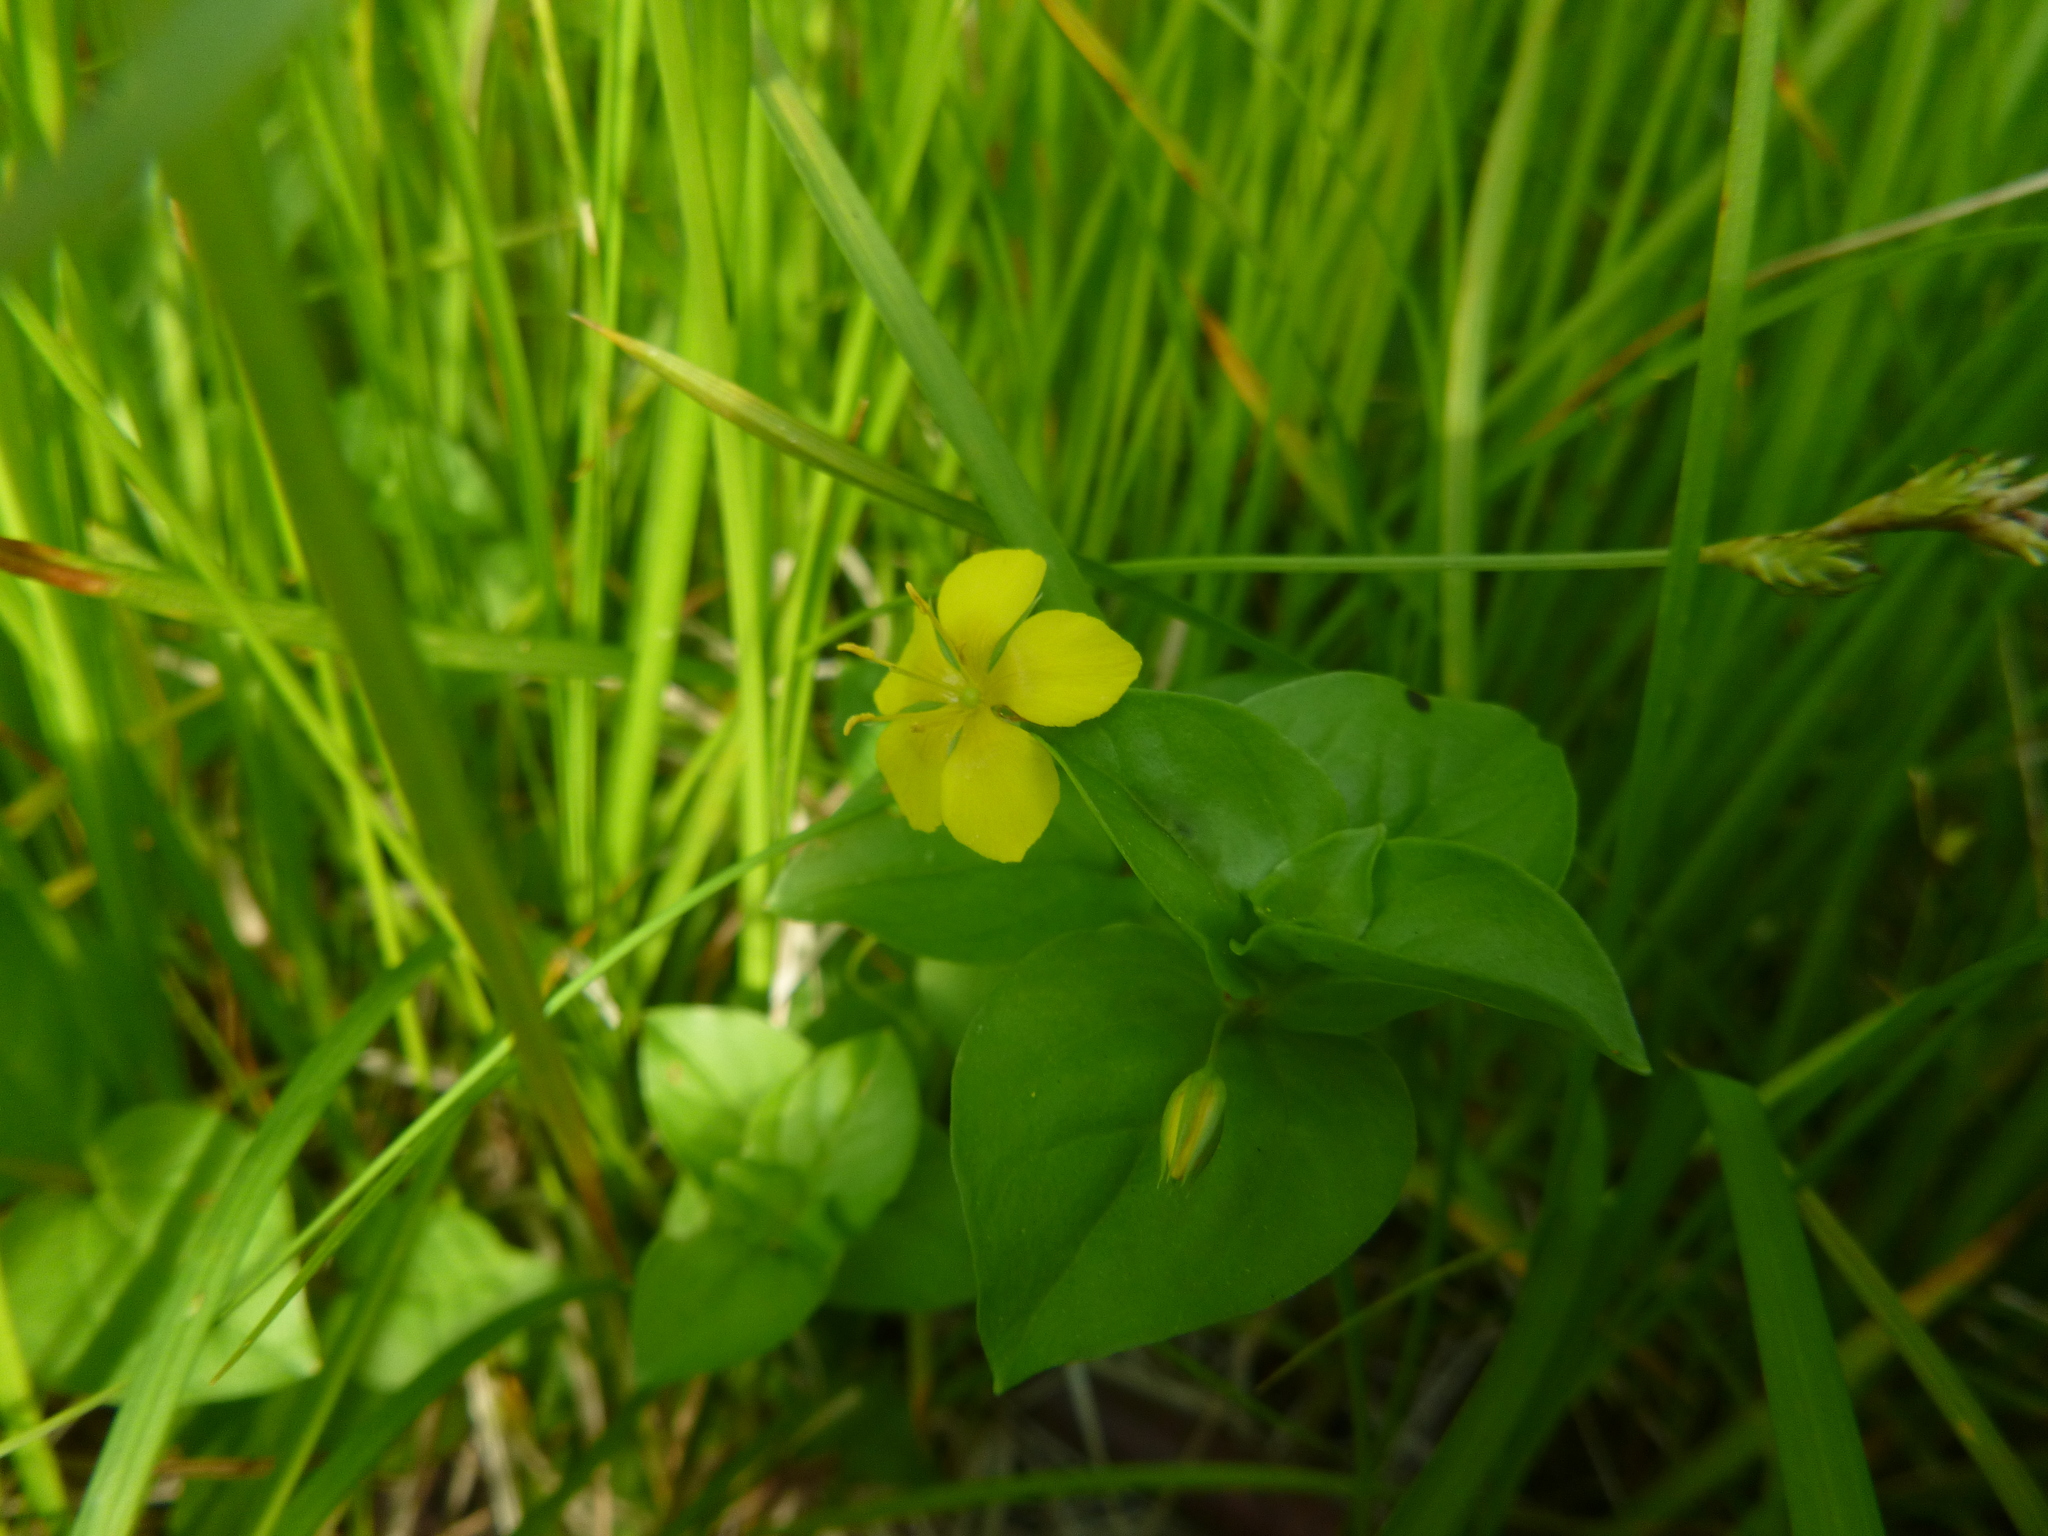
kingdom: Plantae
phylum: Tracheophyta
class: Magnoliopsida
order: Ericales
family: Primulaceae
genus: Lysimachia
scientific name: Lysimachia nemorum
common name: Yellow pimpernel
